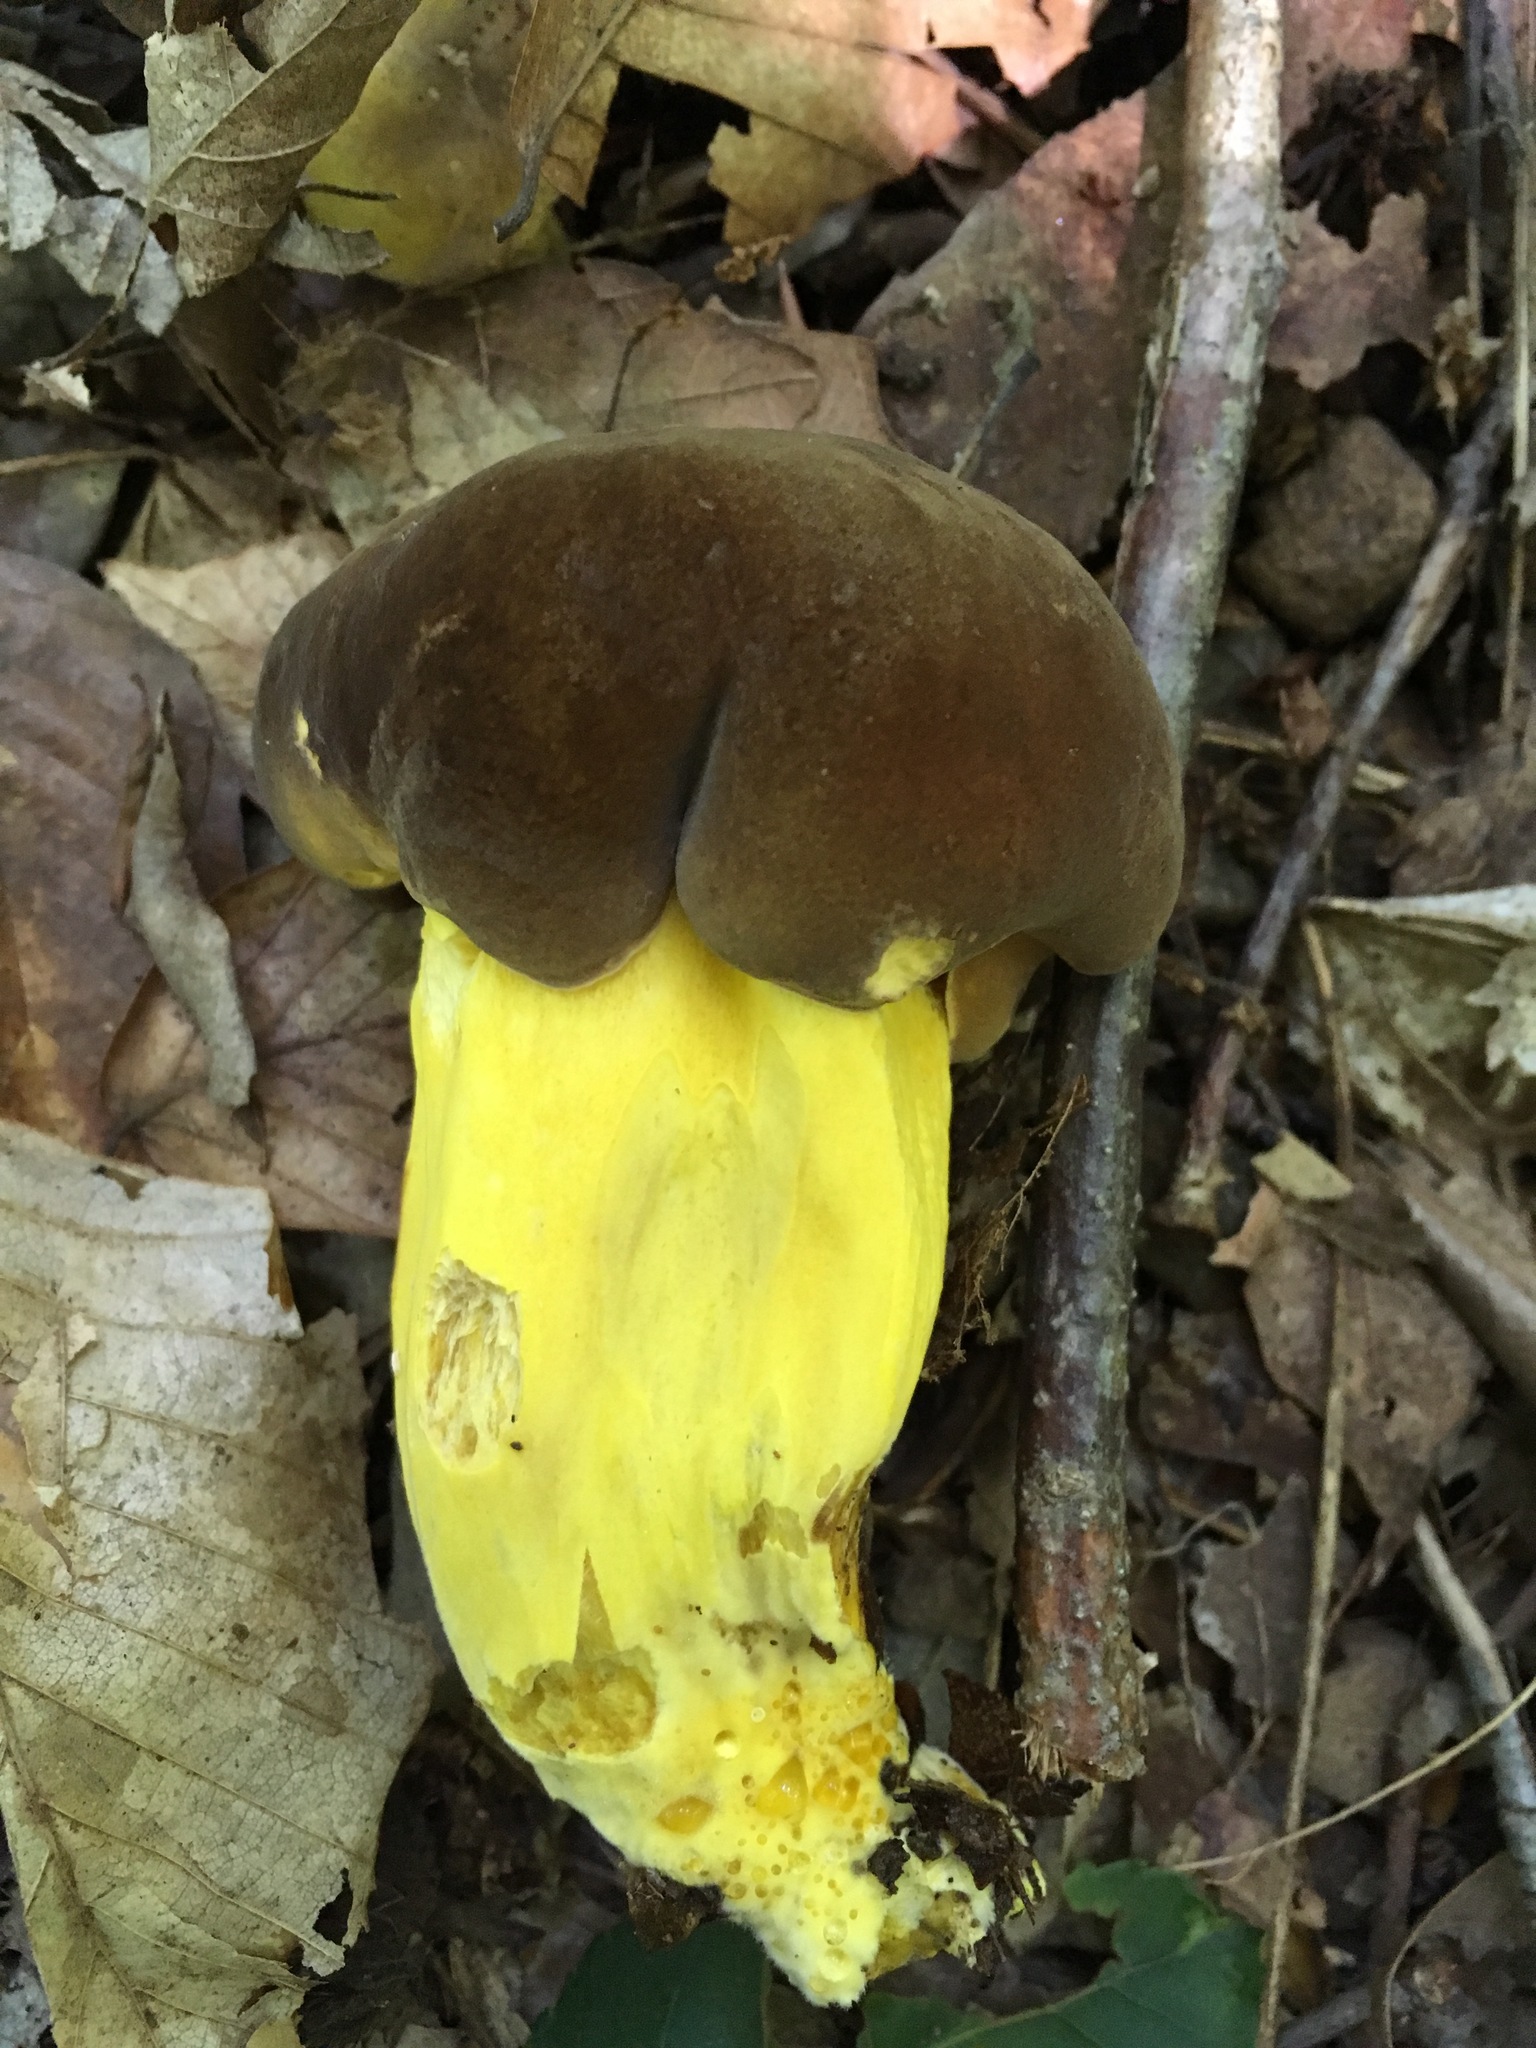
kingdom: Fungi
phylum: Basidiomycota
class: Agaricomycetes
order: Boletales
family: Boletaceae
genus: Boletus
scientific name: Boletus auripes
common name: Butter-foot bolete
